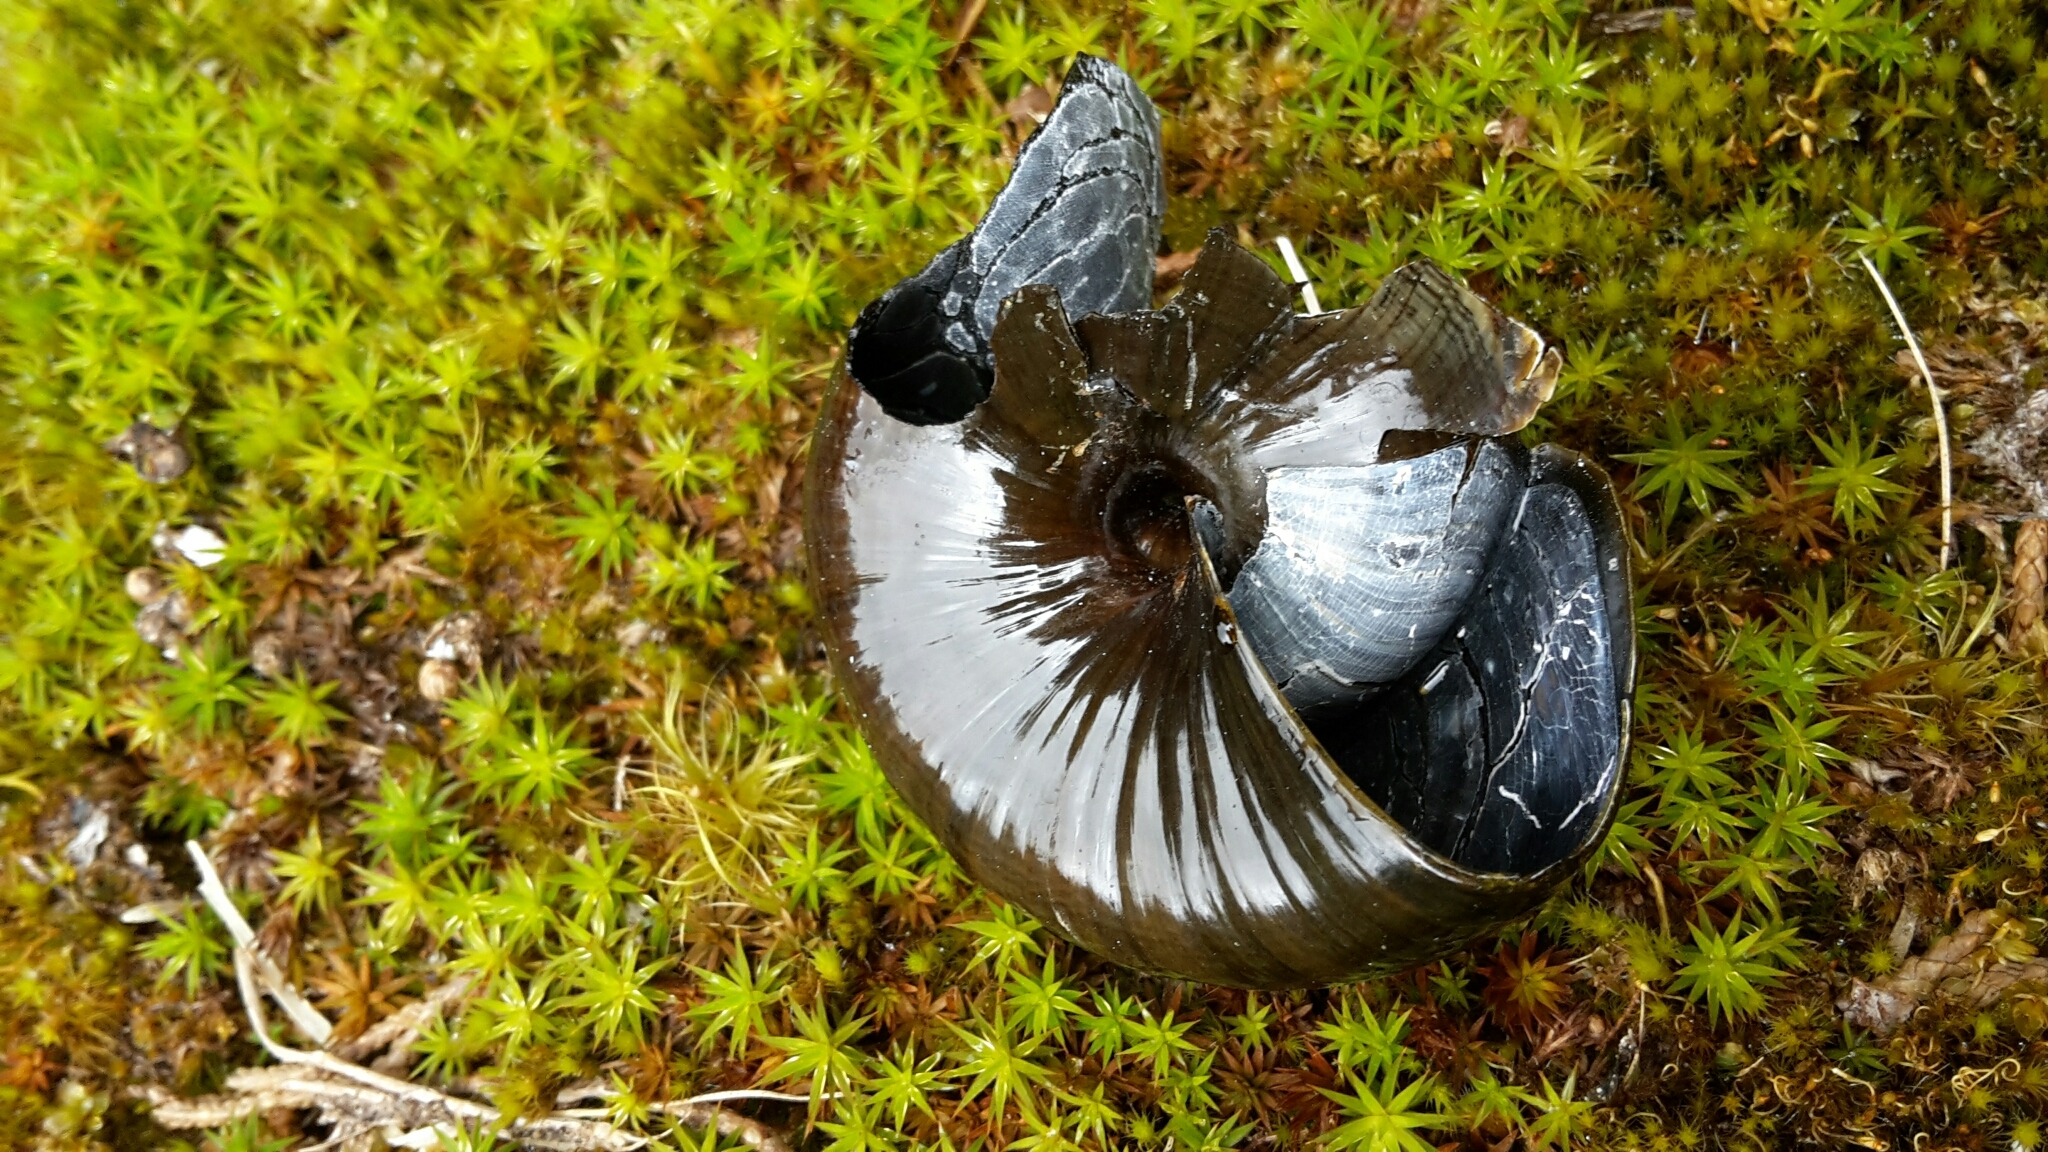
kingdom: Animalia
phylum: Mollusca
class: Gastropoda
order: Stylommatophora
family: Rhytididae
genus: Powelliphanta
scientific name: Powelliphanta marchanti
